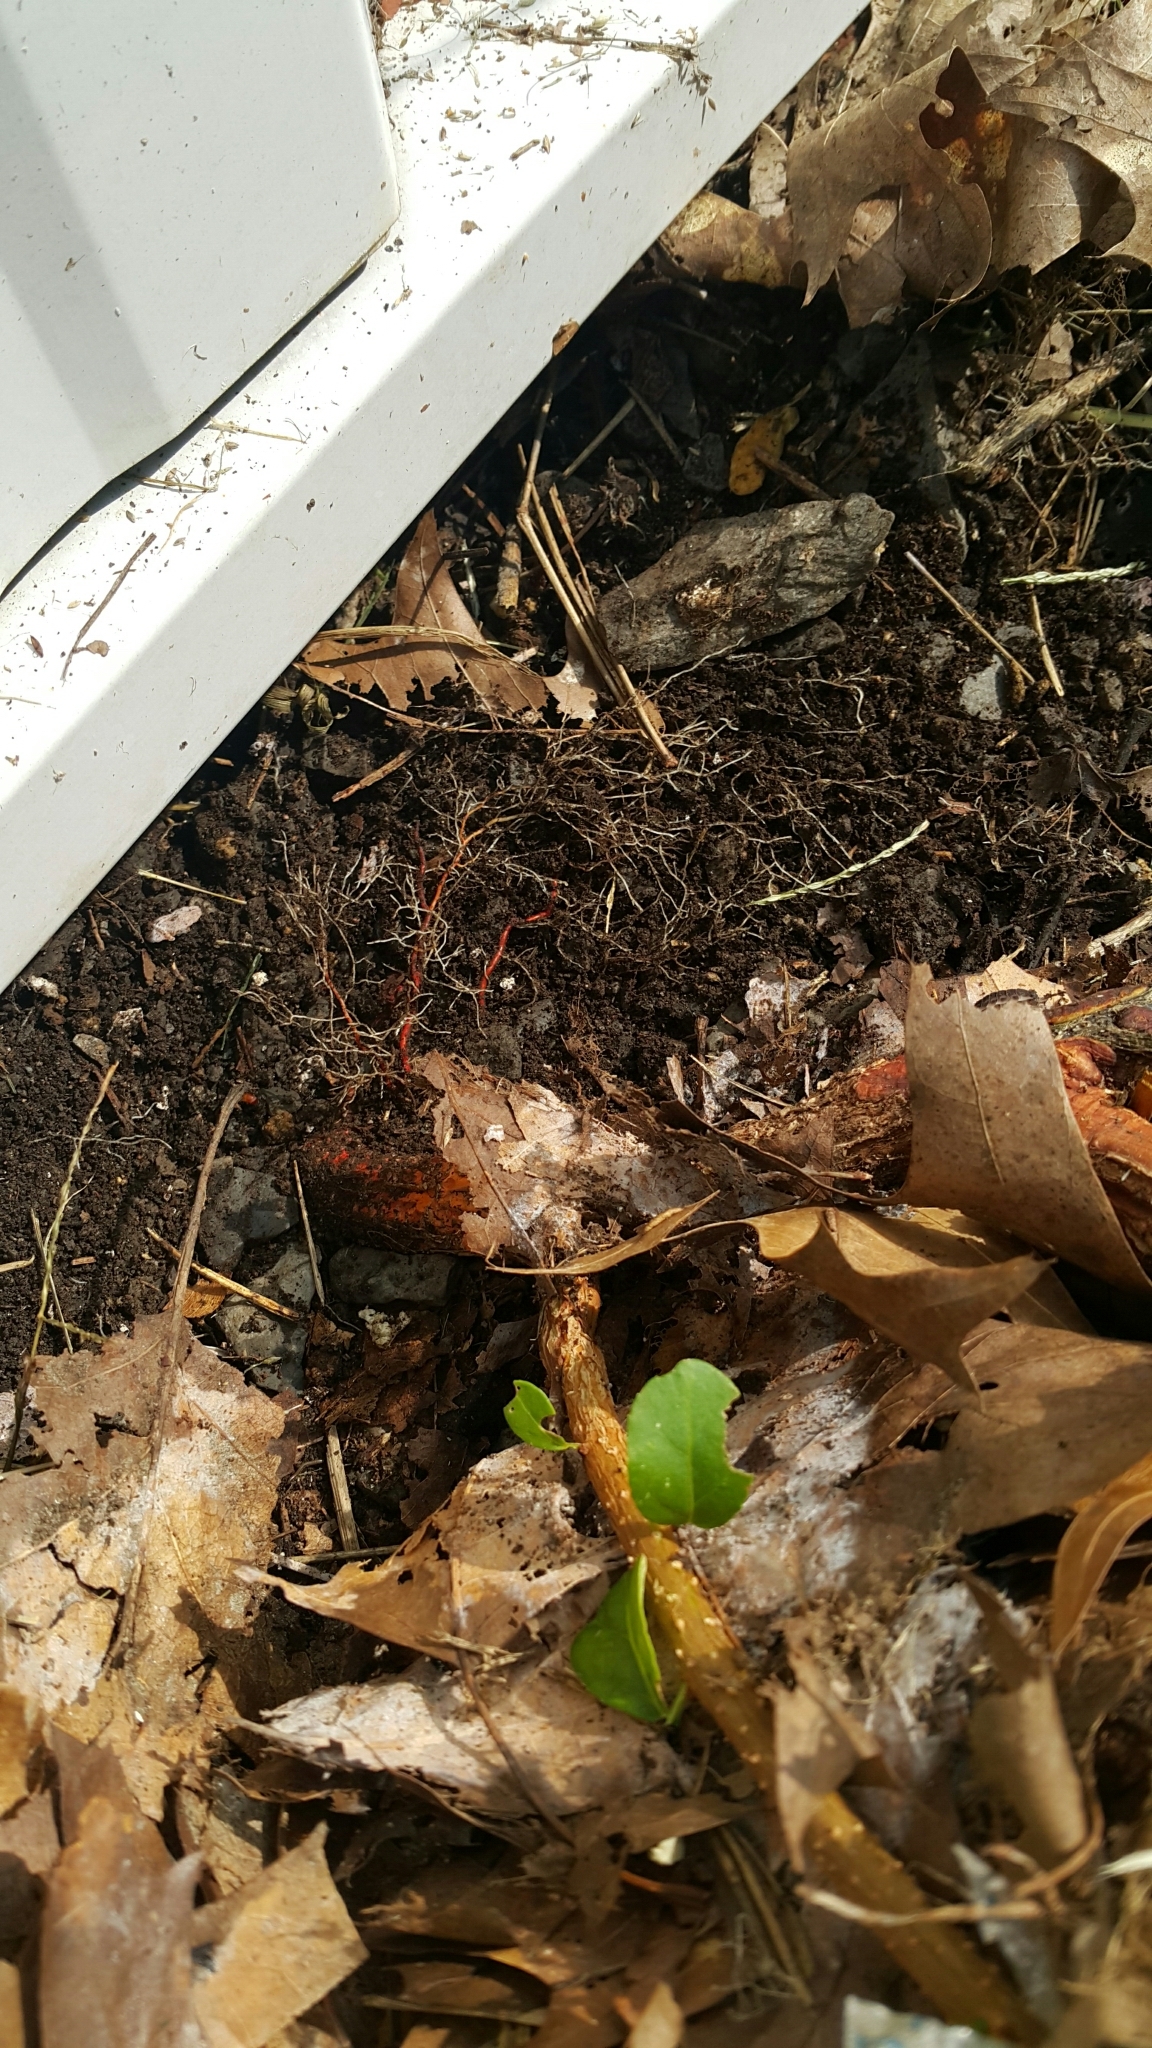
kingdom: Plantae
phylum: Tracheophyta
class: Magnoliopsida
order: Celastrales
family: Celastraceae
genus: Celastrus
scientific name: Celastrus orbiculatus
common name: Oriental bittersweet
